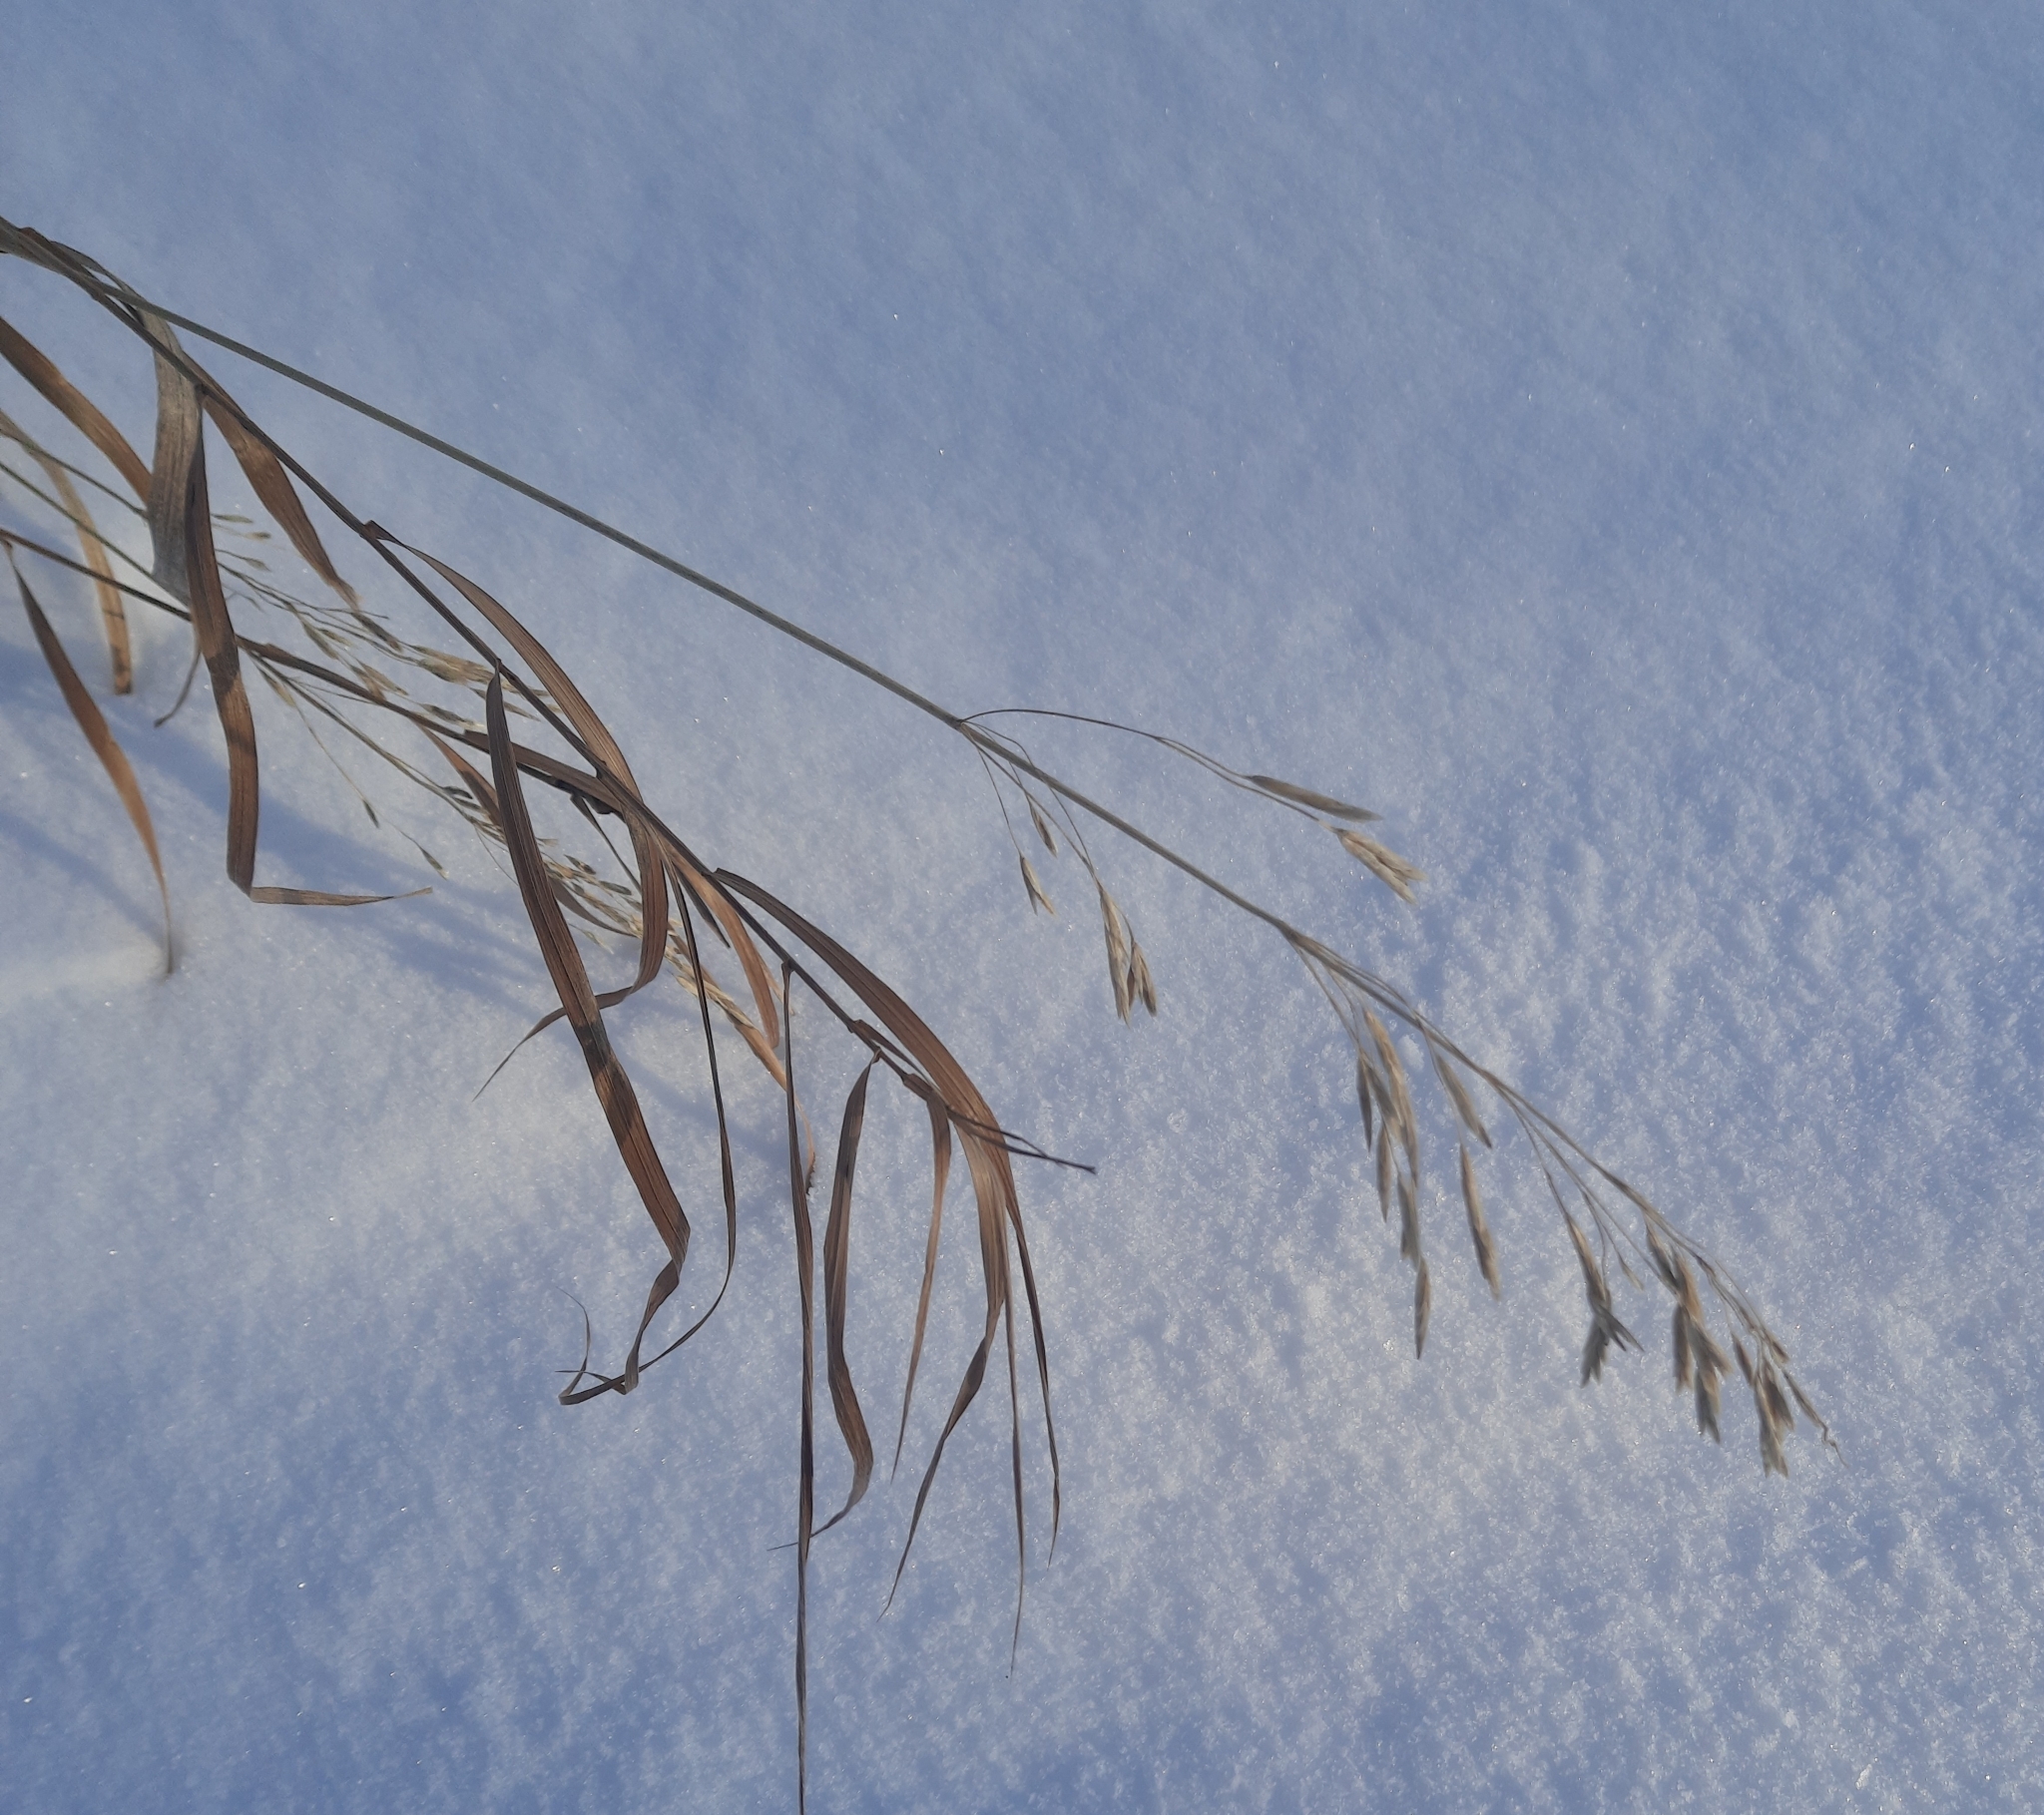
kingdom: Plantae
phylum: Tracheophyta
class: Liliopsida
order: Poales
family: Poaceae
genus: Bromus
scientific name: Bromus inermis
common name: Smooth brome
